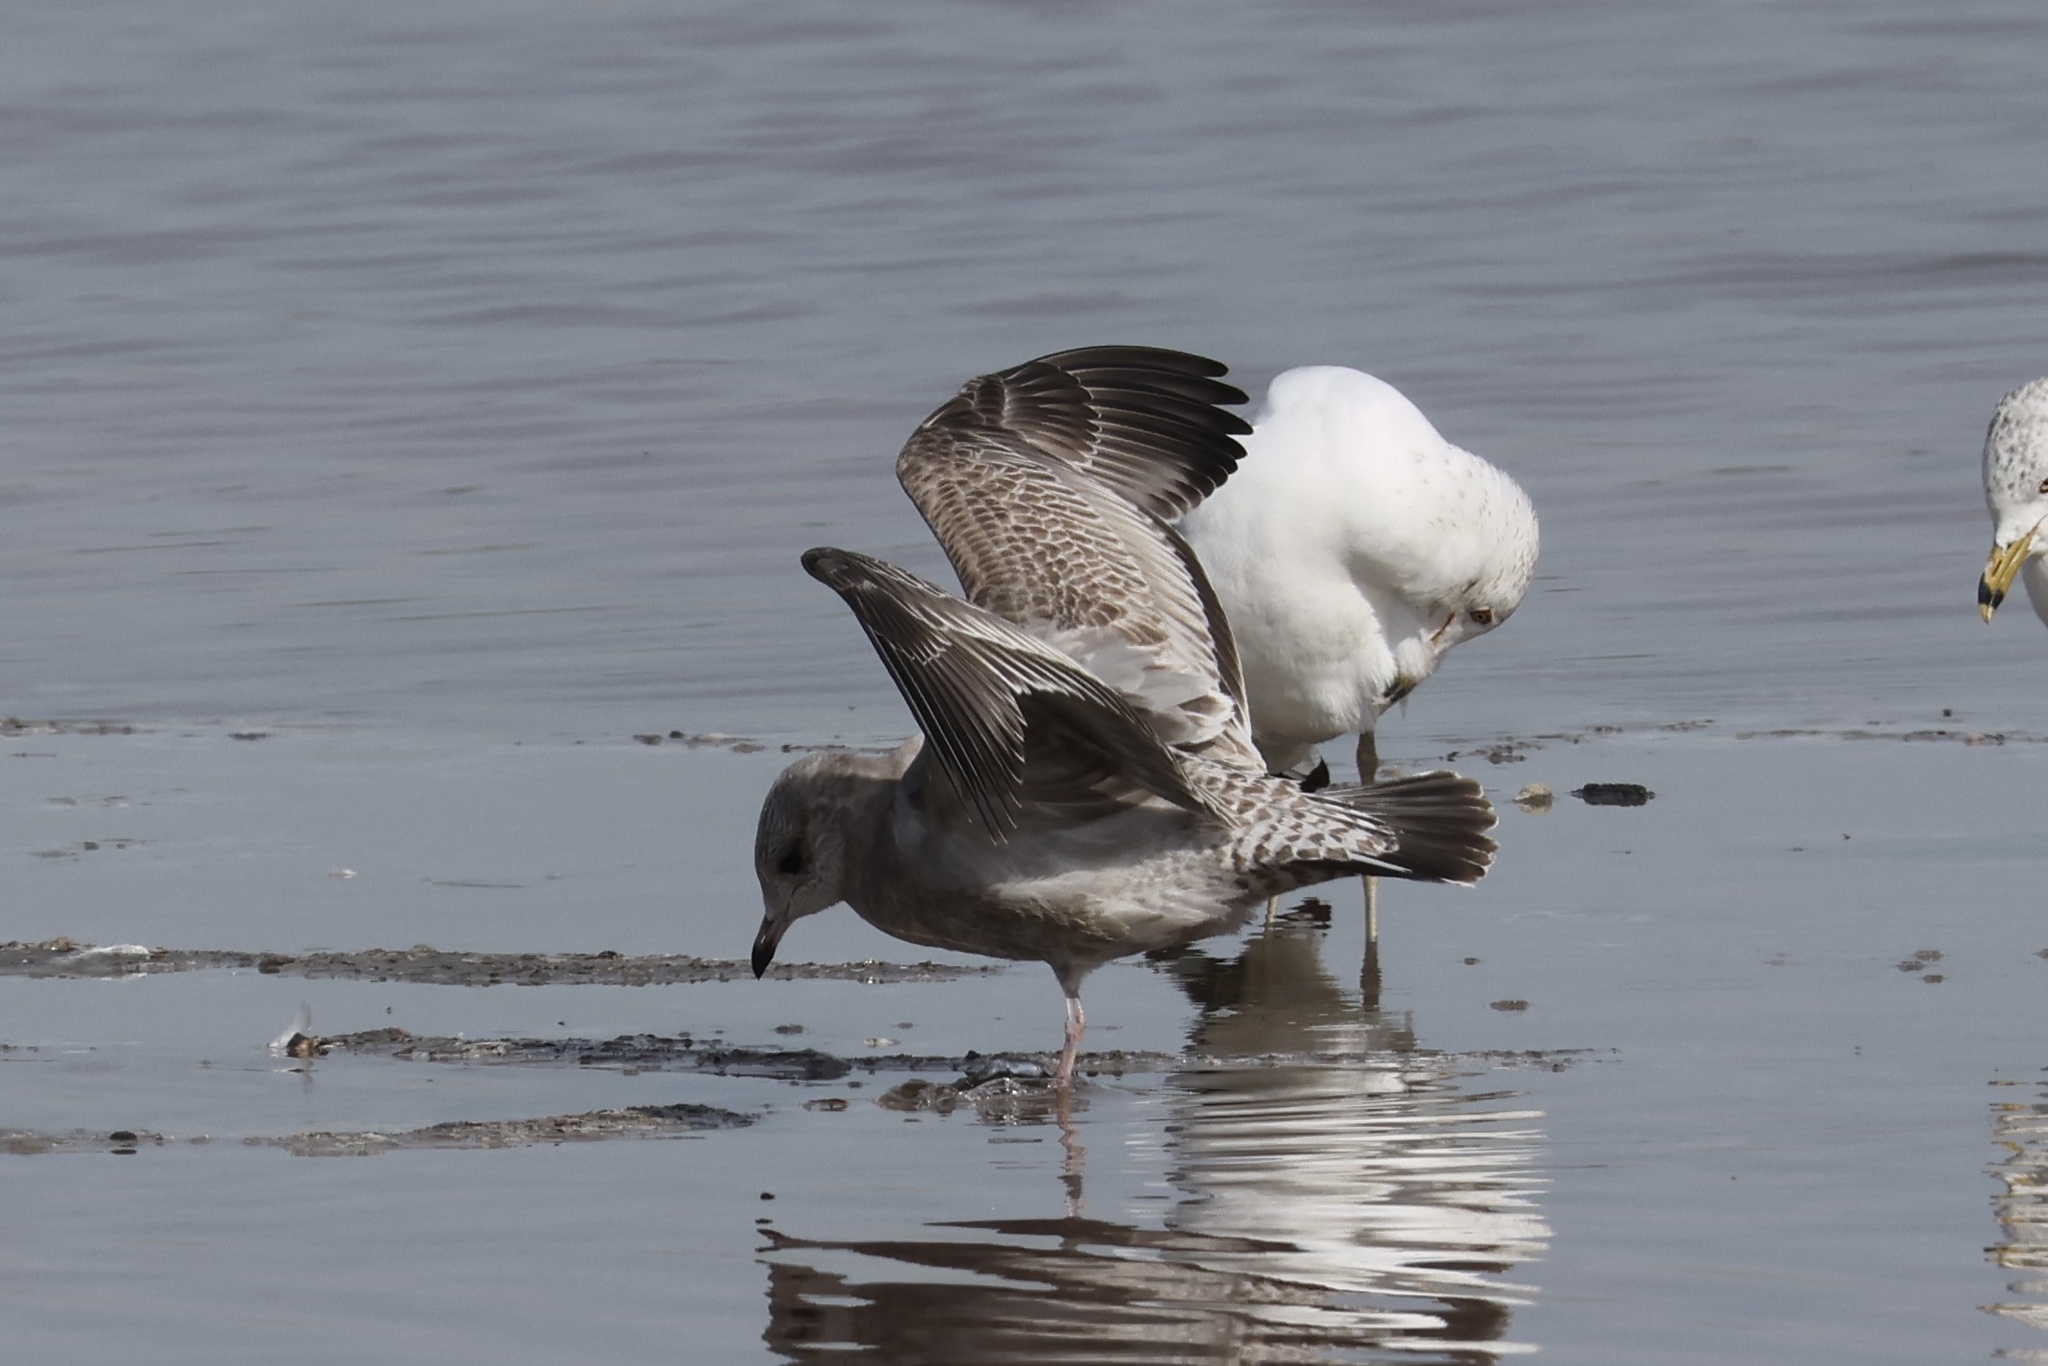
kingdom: Animalia
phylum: Chordata
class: Aves
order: Charadriiformes
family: Laridae
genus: Larus
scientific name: Larus brachyrhynchus
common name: Short-billed gull
